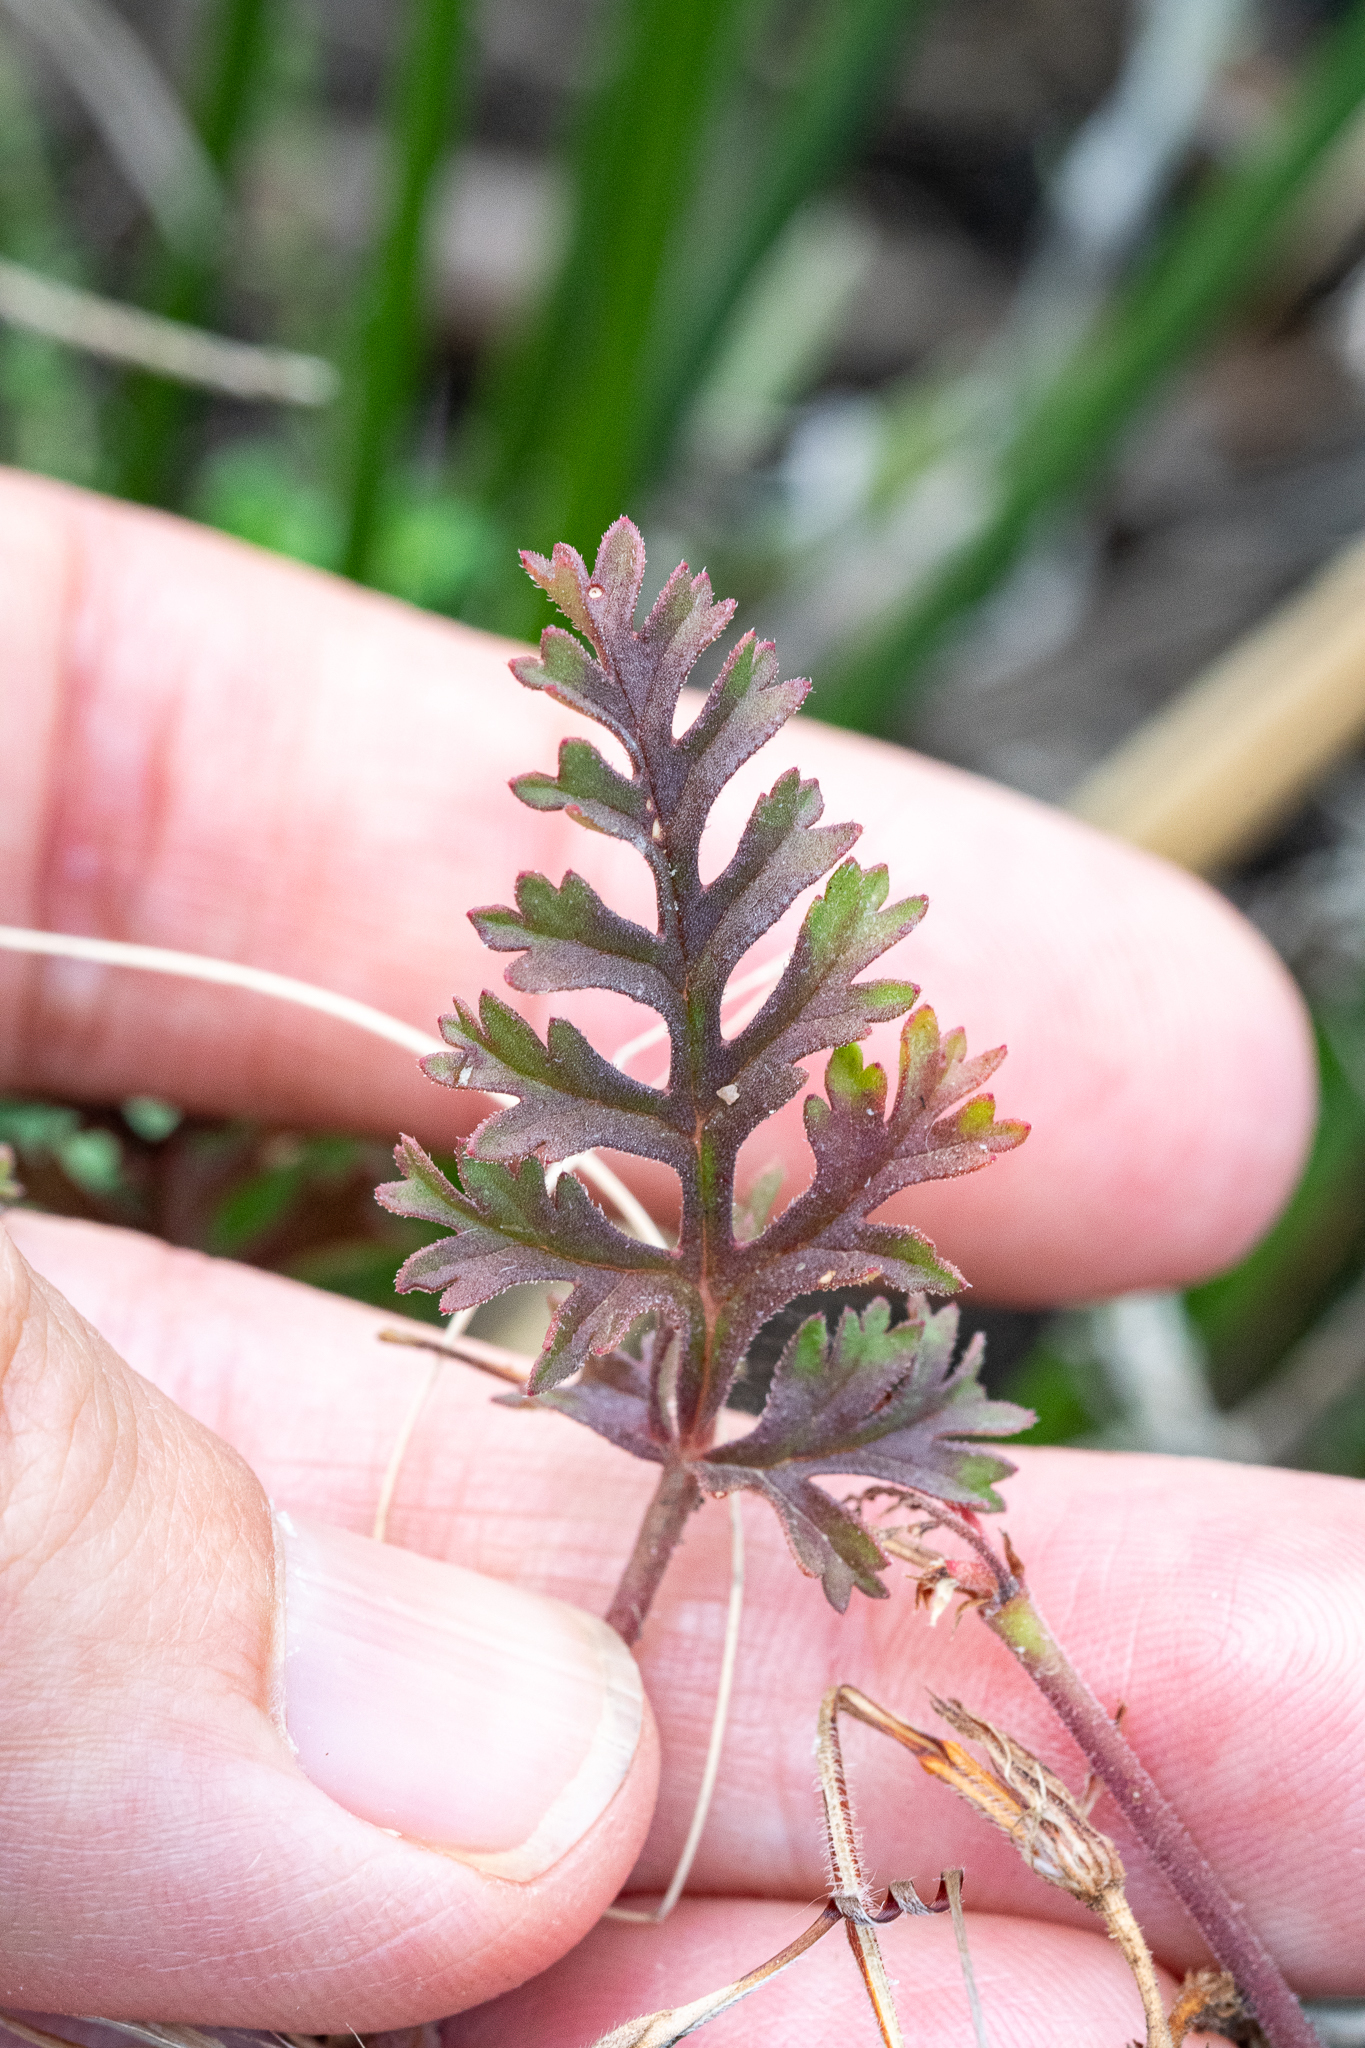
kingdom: Plantae
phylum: Tracheophyta
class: Magnoliopsida
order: Geraniales
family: Geraniaceae
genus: Pelargonium
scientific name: Pelargonium myrrhifolium
